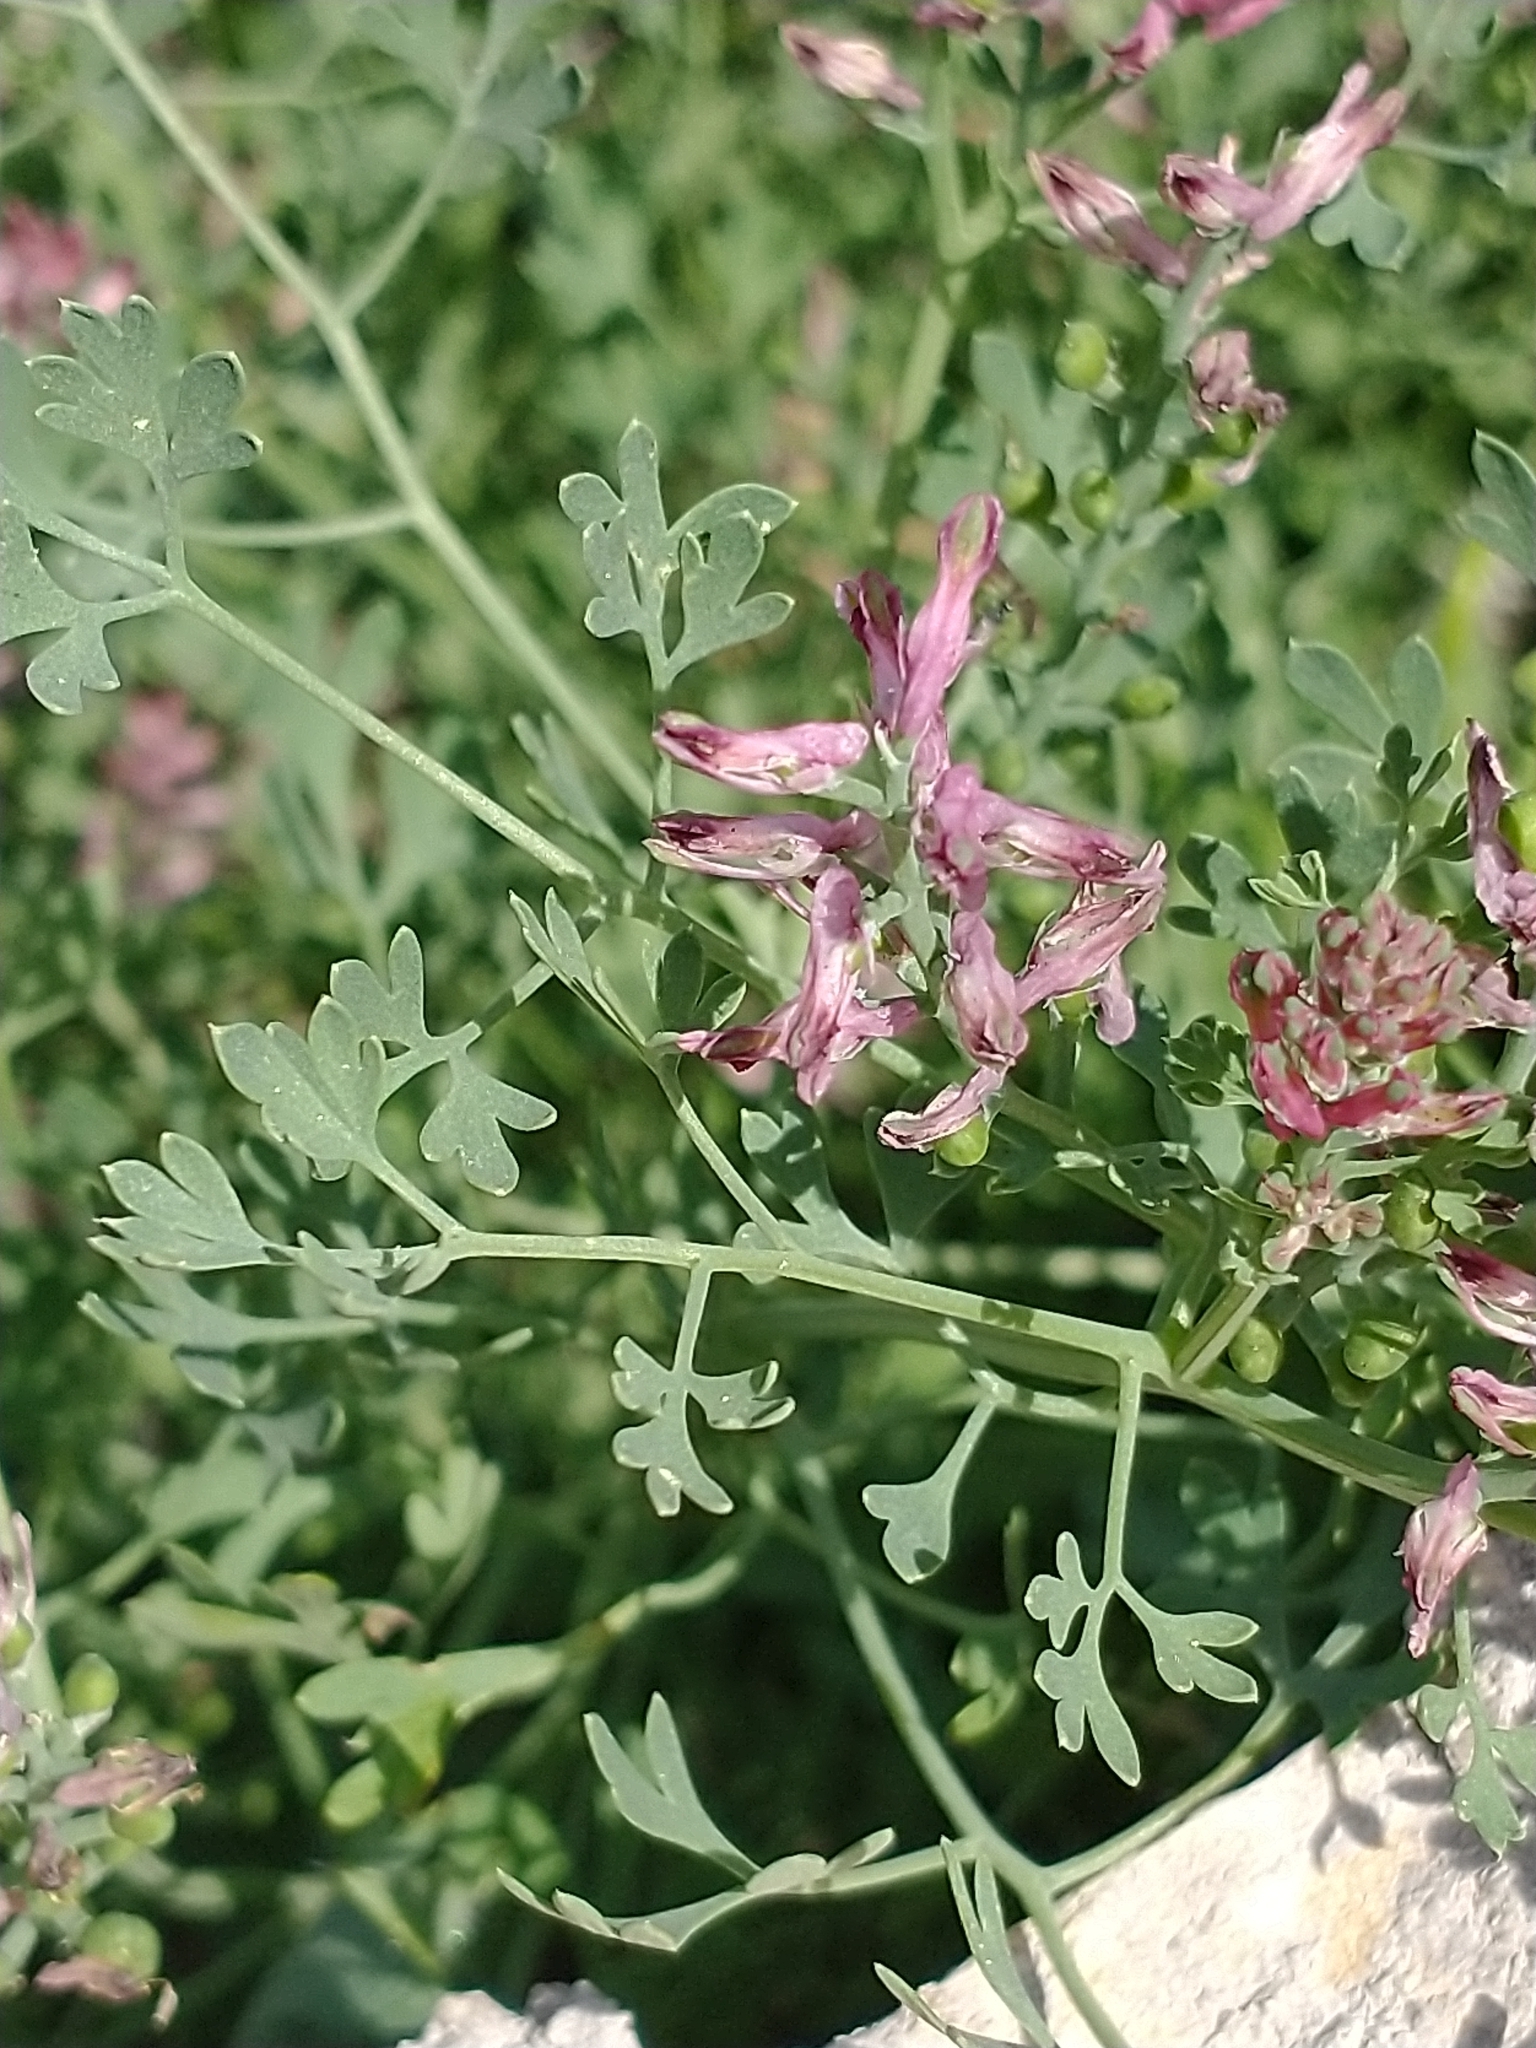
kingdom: Plantae
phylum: Tracheophyta
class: Magnoliopsida
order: Ranunculales
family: Papaveraceae
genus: Fumaria
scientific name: Fumaria officinalis
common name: Common fumitory
